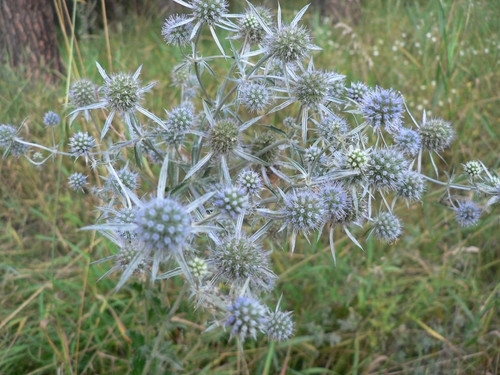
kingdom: Plantae
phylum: Tracheophyta
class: Magnoliopsida
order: Apiales
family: Apiaceae
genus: Eryngium
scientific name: Eryngium planum
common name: Blue eryngo
